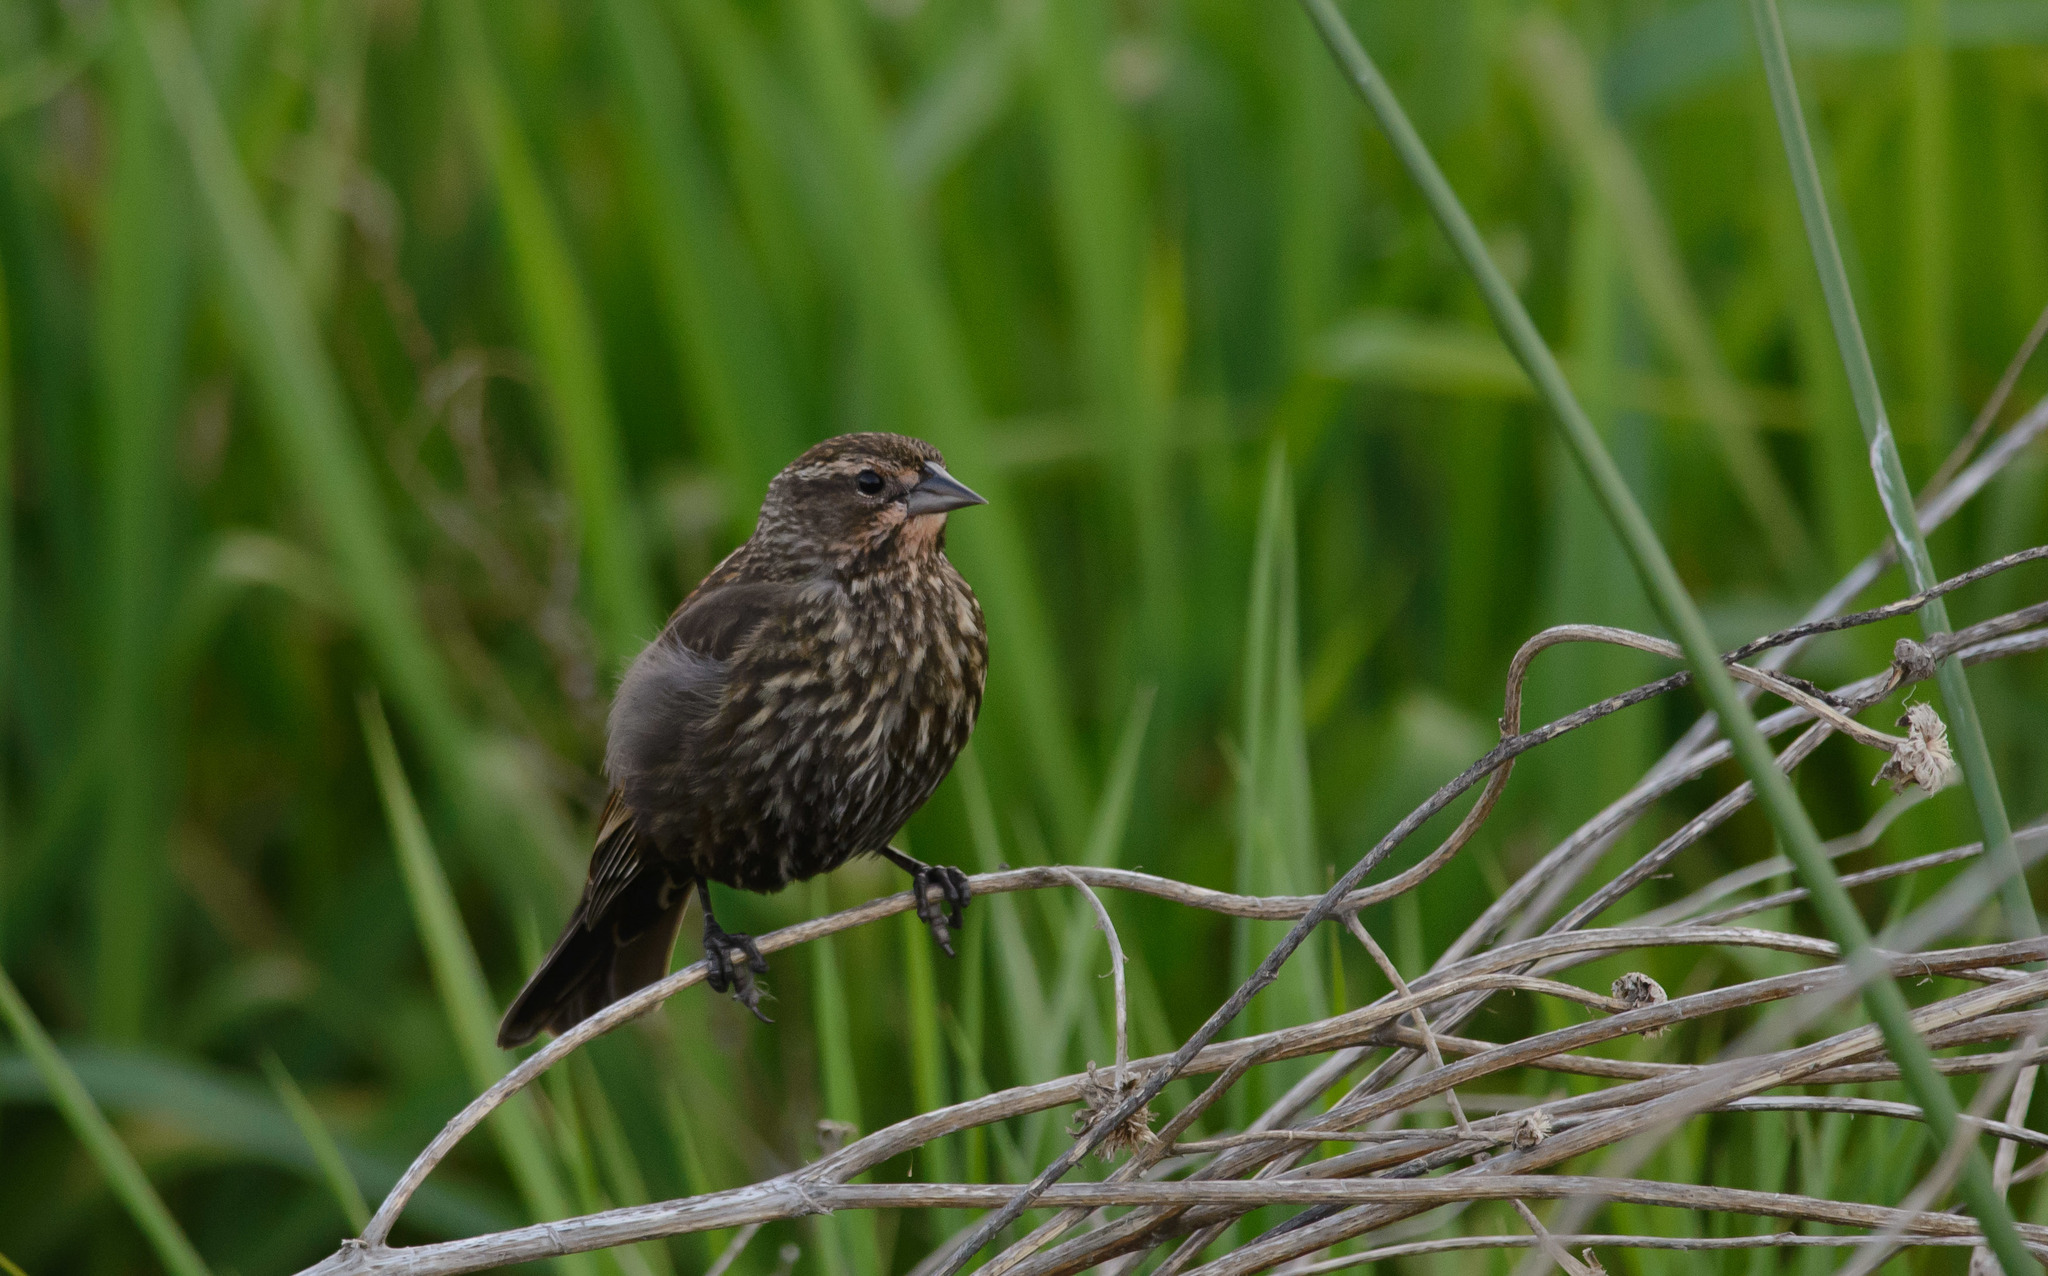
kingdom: Animalia
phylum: Chordata
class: Aves
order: Passeriformes
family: Icteridae
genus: Agelaius
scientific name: Agelaius phoeniceus
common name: Red-winged blackbird
